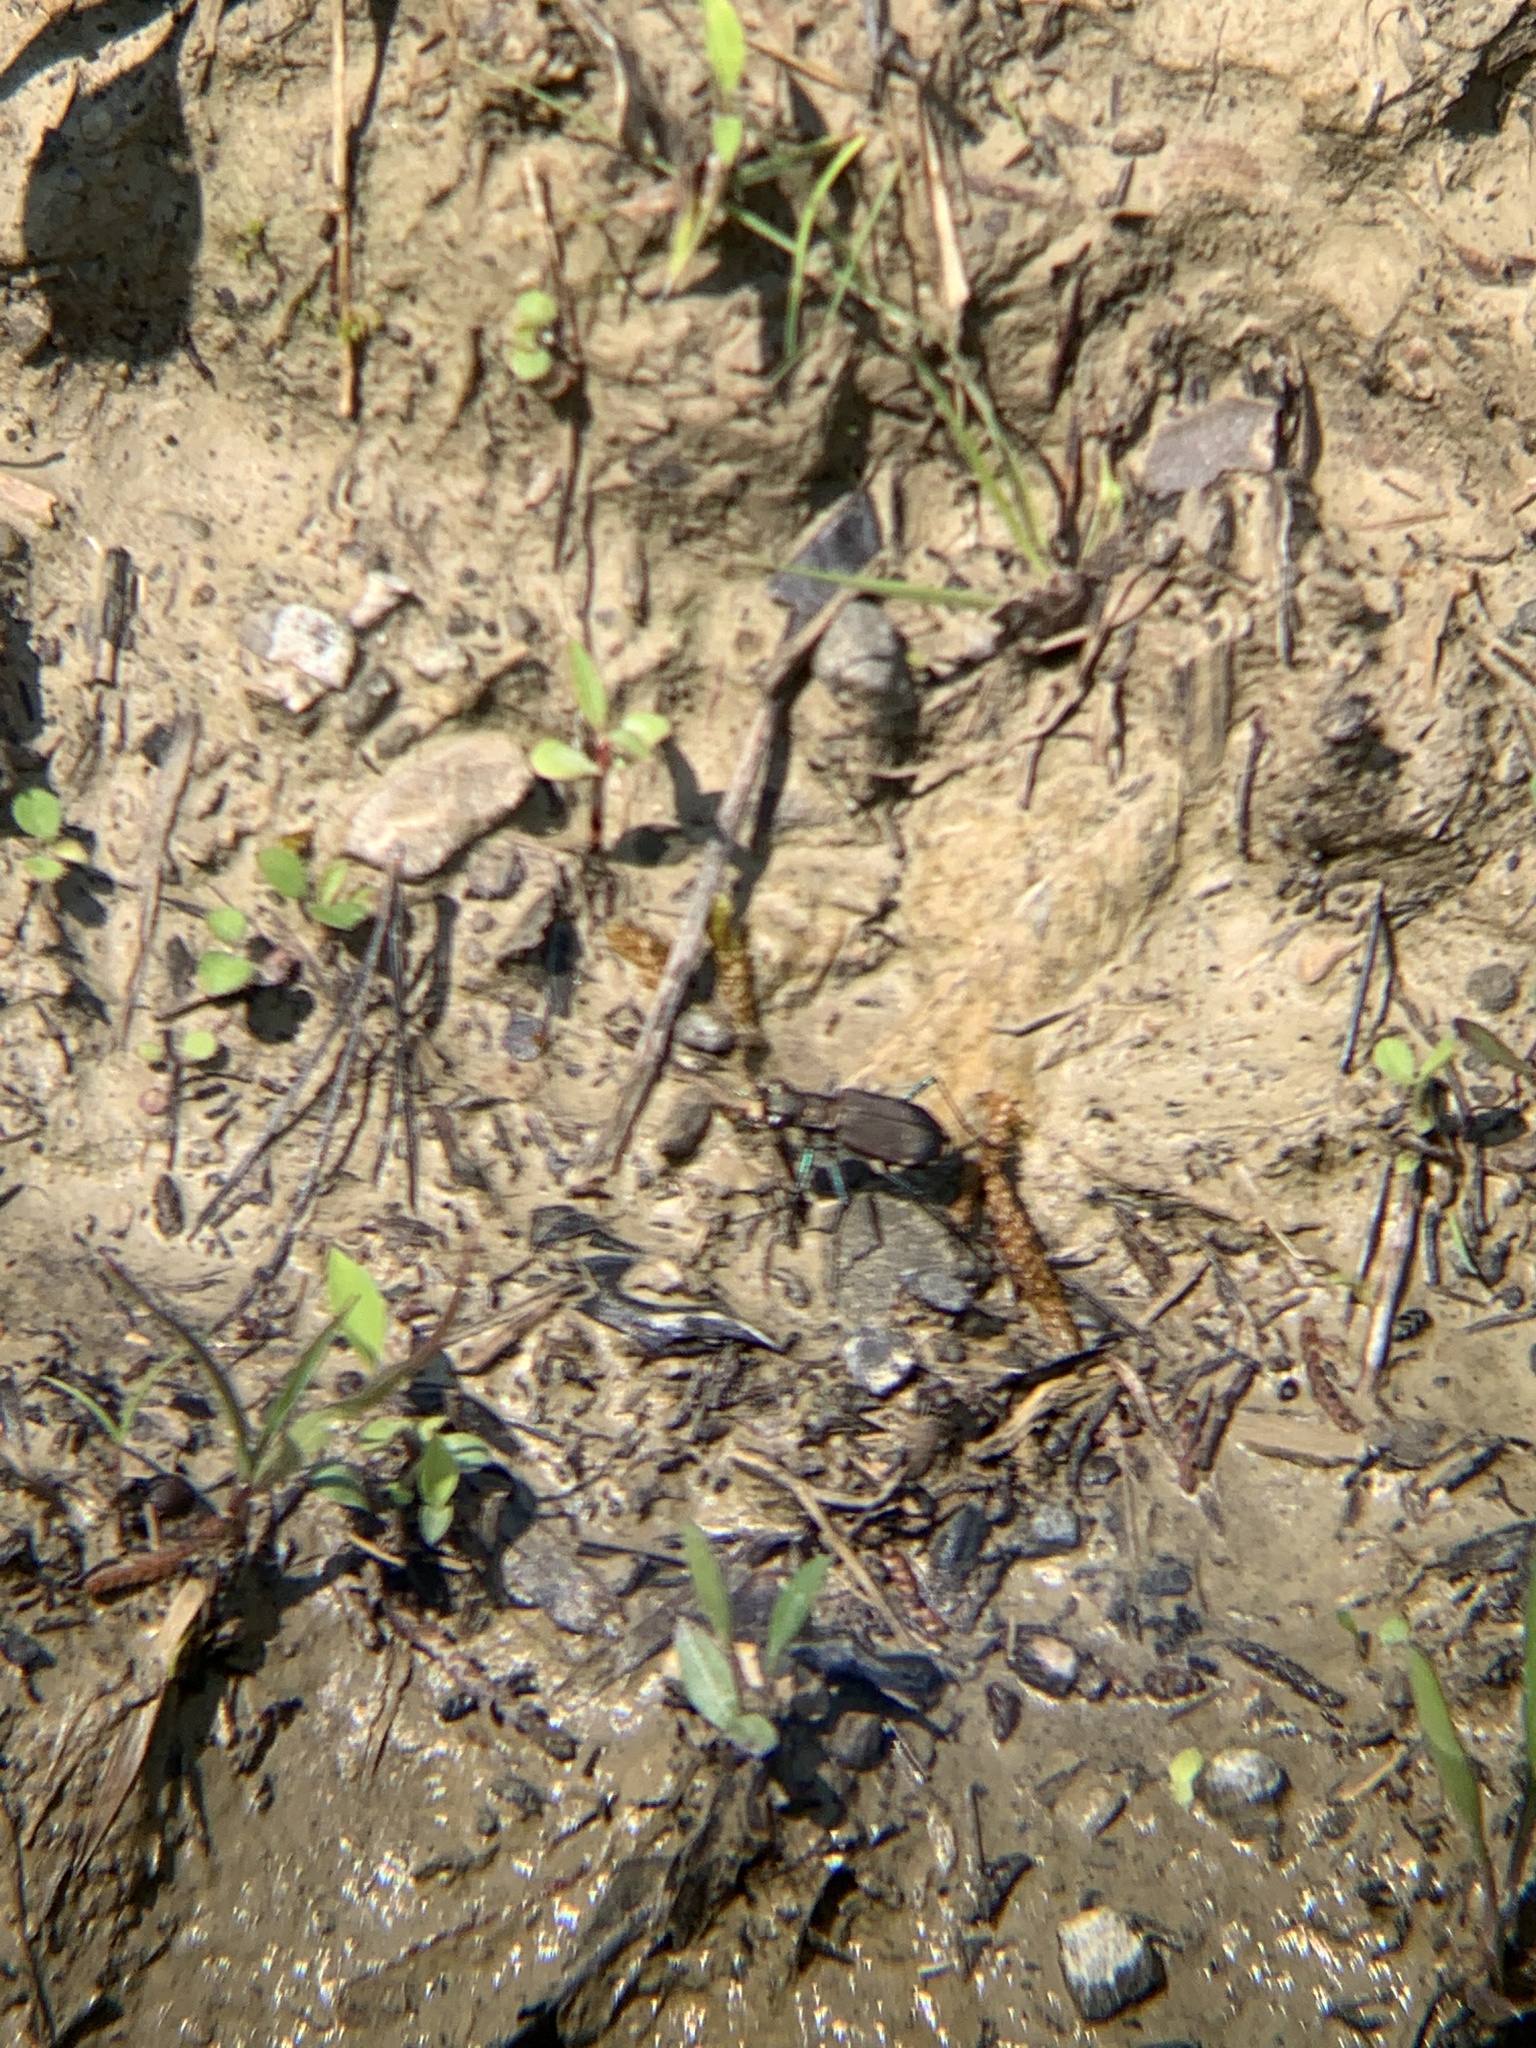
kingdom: Animalia
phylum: Arthropoda
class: Insecta
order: Coleoptera
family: Carabidae
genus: Cicindela
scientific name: Cicindela rufiventris
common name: Eastern red-bellied tiger beetle
